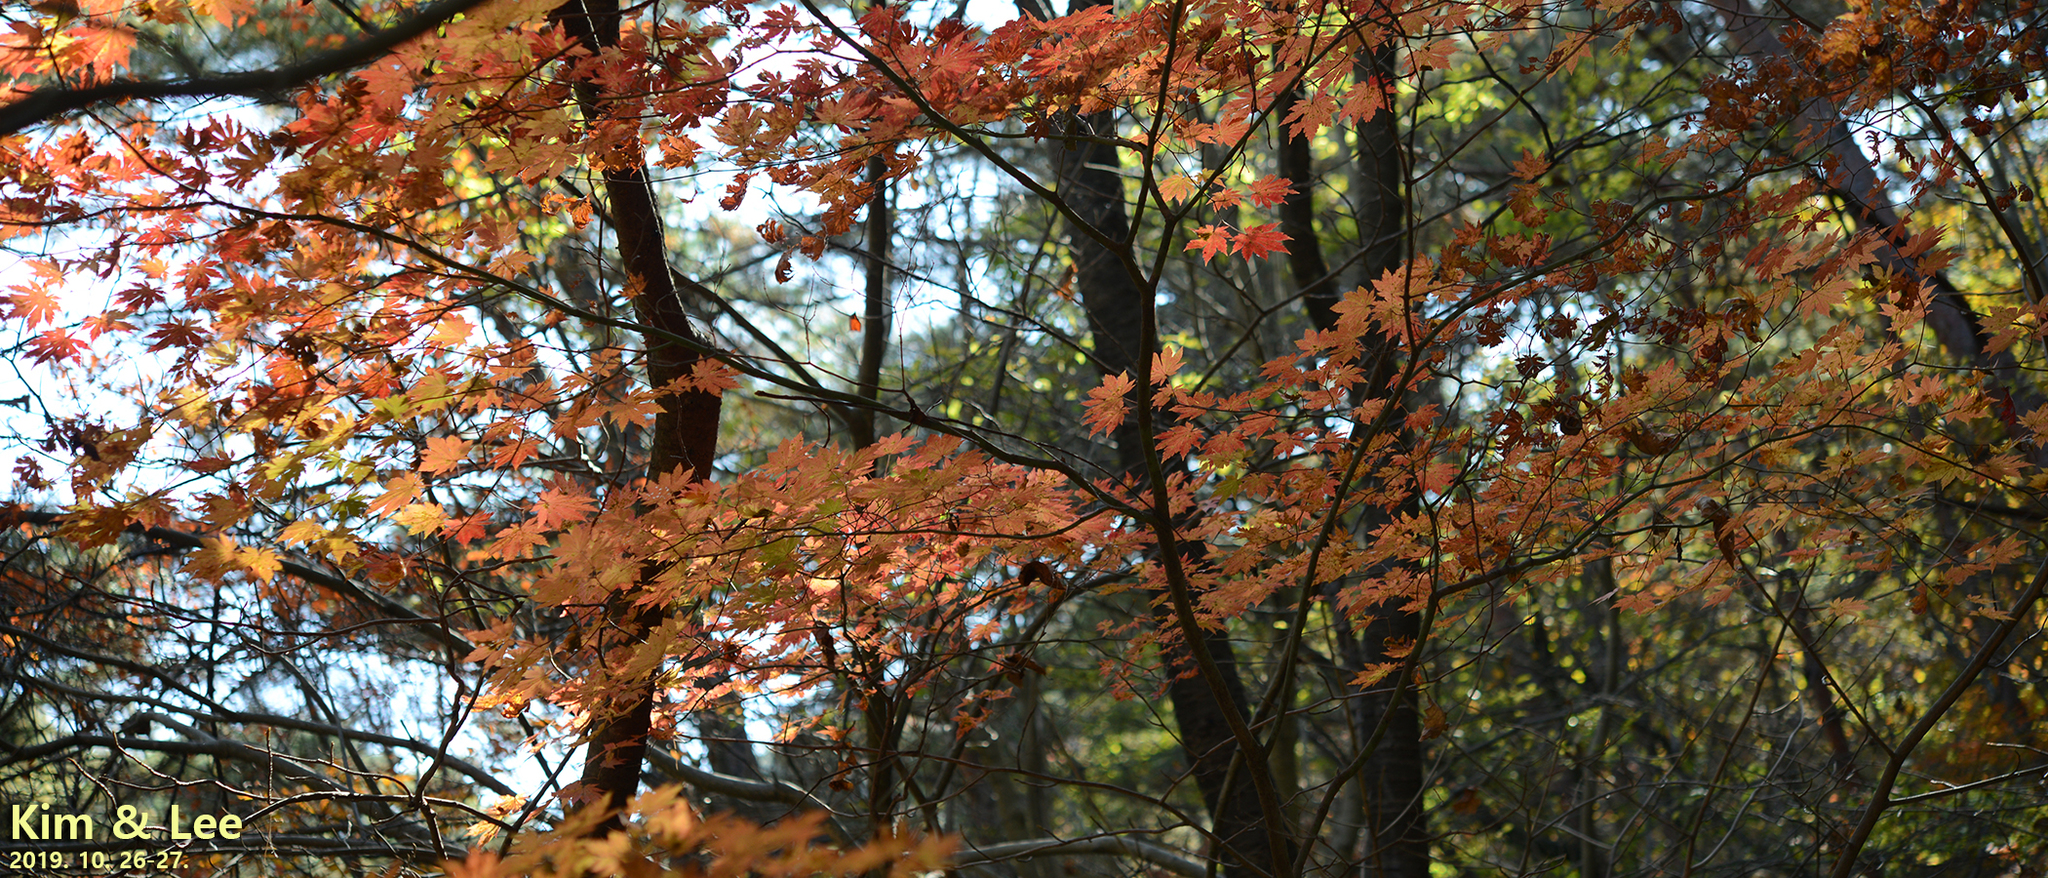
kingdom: Plantae
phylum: Tracheophyta
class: Magnoliopsida
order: Sapindales
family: Sapindaceae
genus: Acer
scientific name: Acer palmatum
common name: Japanese maple
